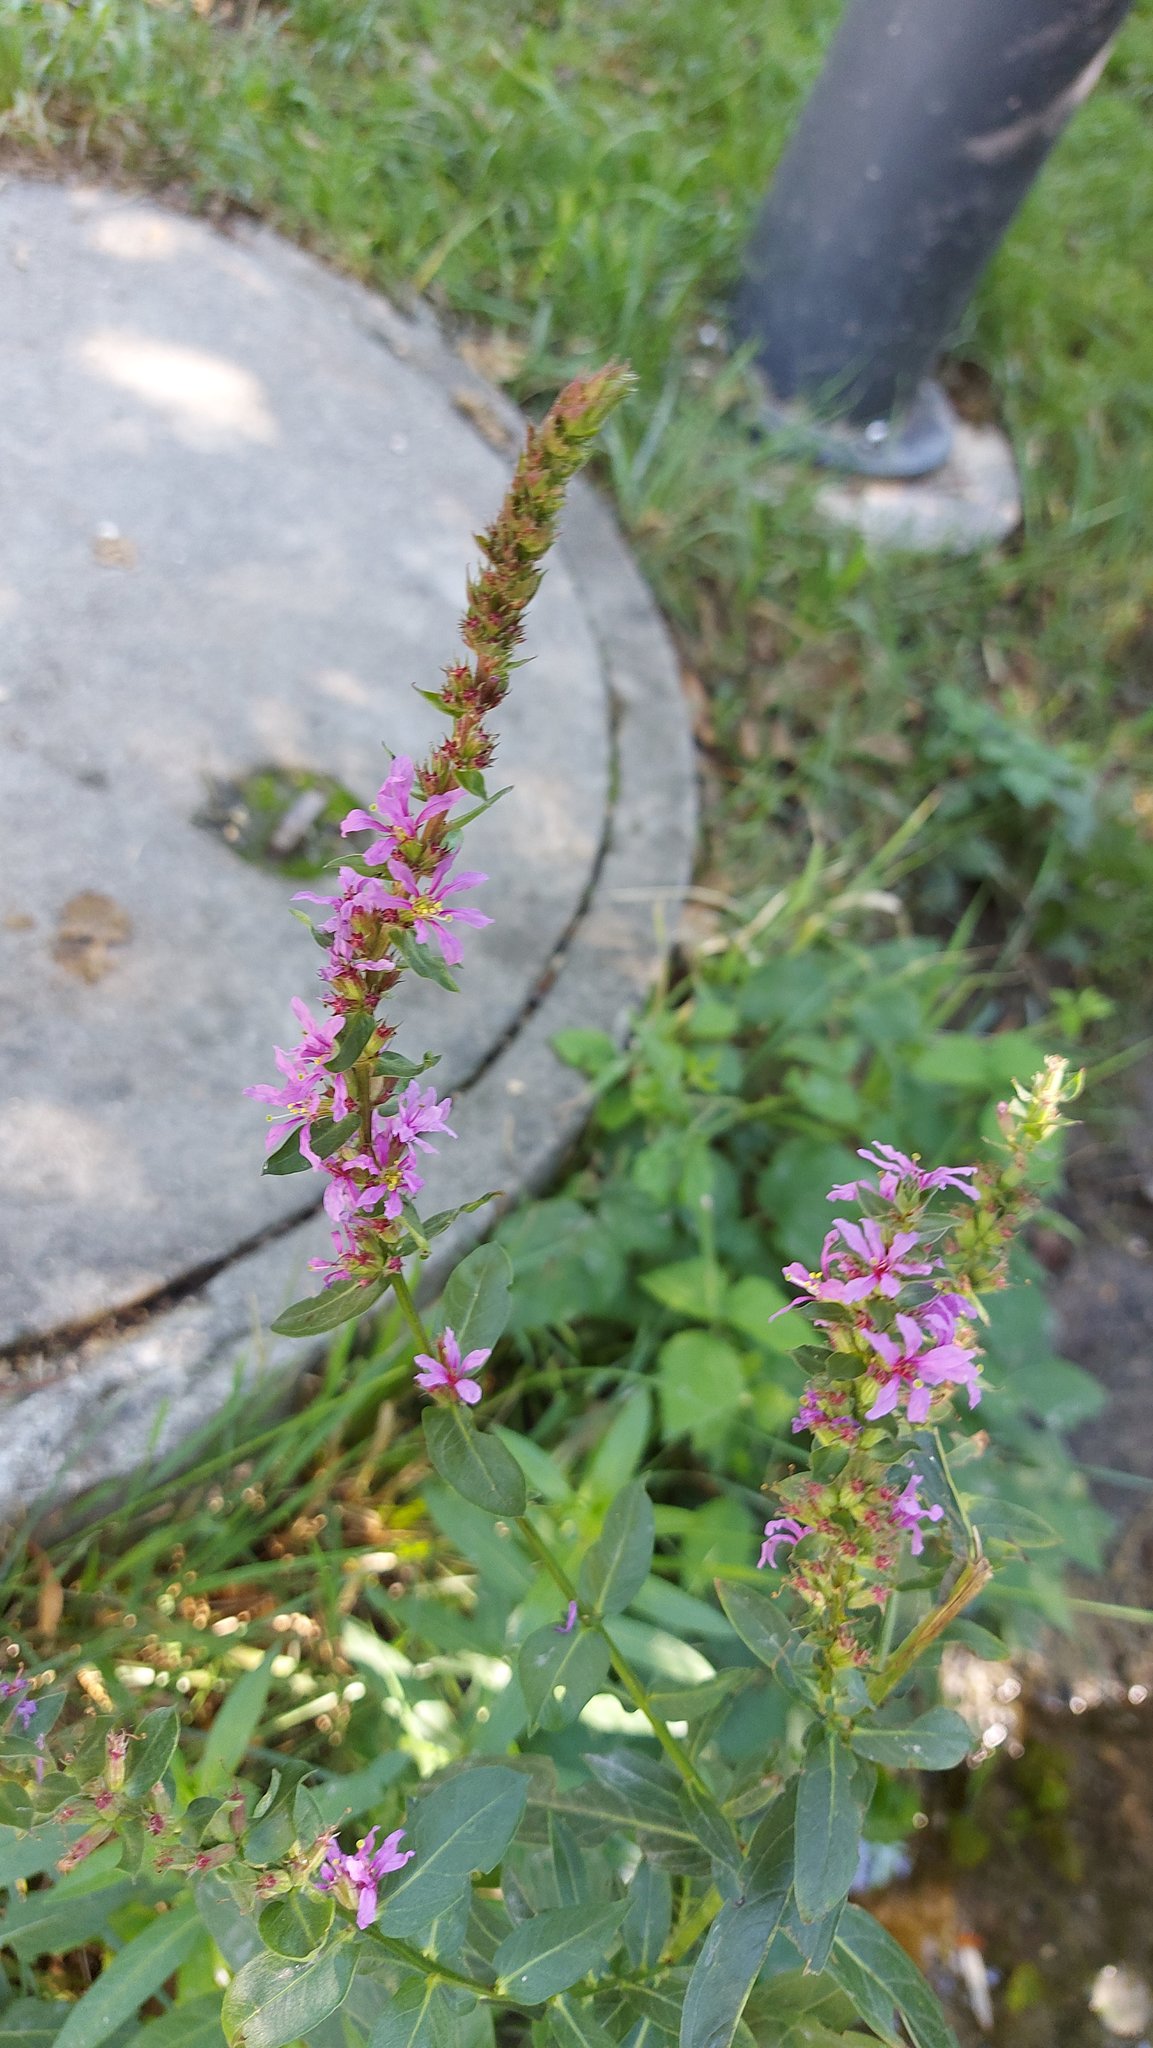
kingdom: Plantae
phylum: Tracheophyta
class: Magnoliopsida
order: Myrtales
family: Lythraceae
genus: Lythrum
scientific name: Lythrum salicaria
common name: Purple loosestrife
